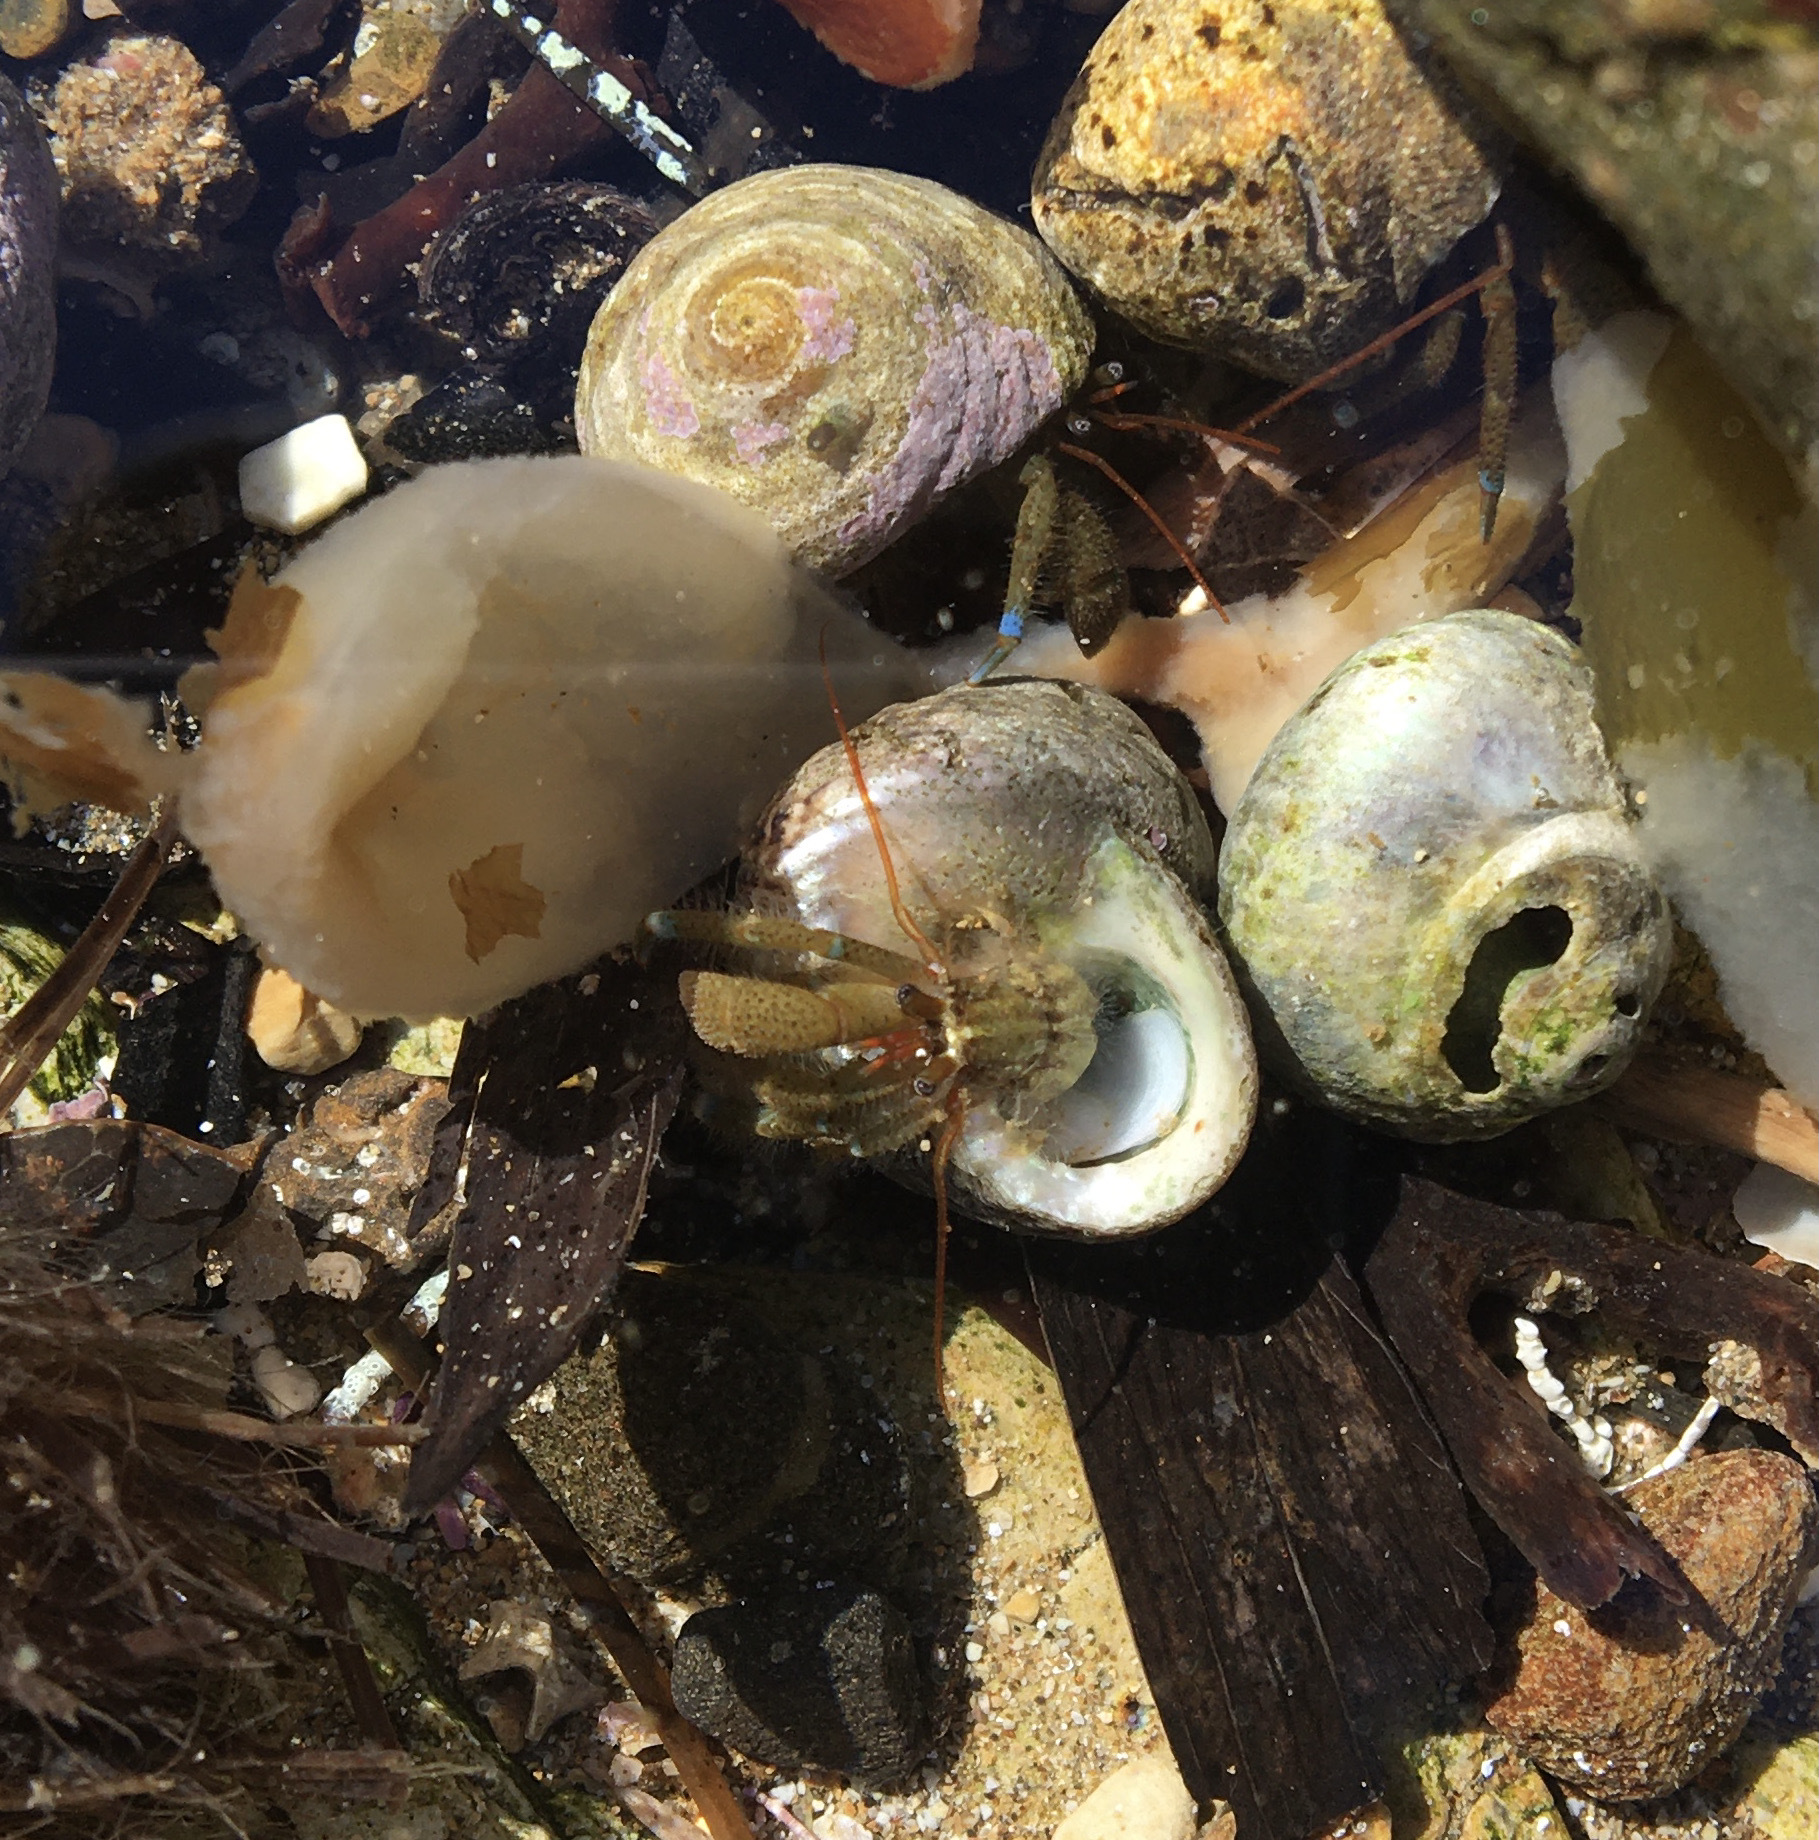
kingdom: Animalia
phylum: Arthropoda
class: Malacostraca
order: Decapoda
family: Paguridae
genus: Pagurus
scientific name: Pagurus samuelis
